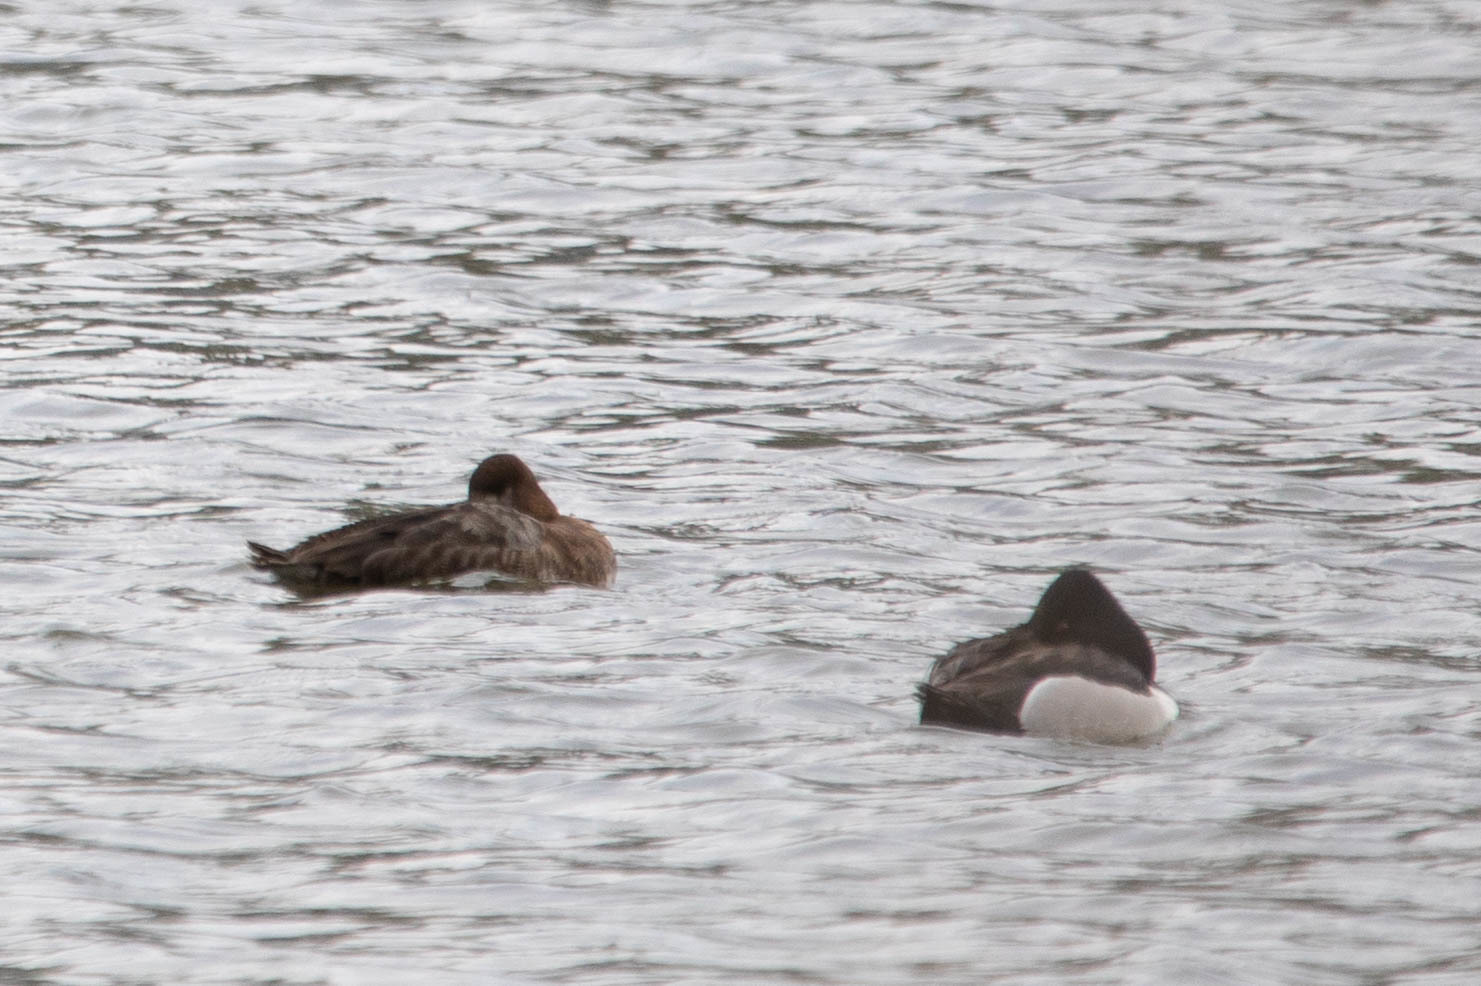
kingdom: Animalia
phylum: Chordata
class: Aves
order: Anseriformes
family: Anatidae
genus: Aythya
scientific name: Aythya collaris
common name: Ring-necked duck
